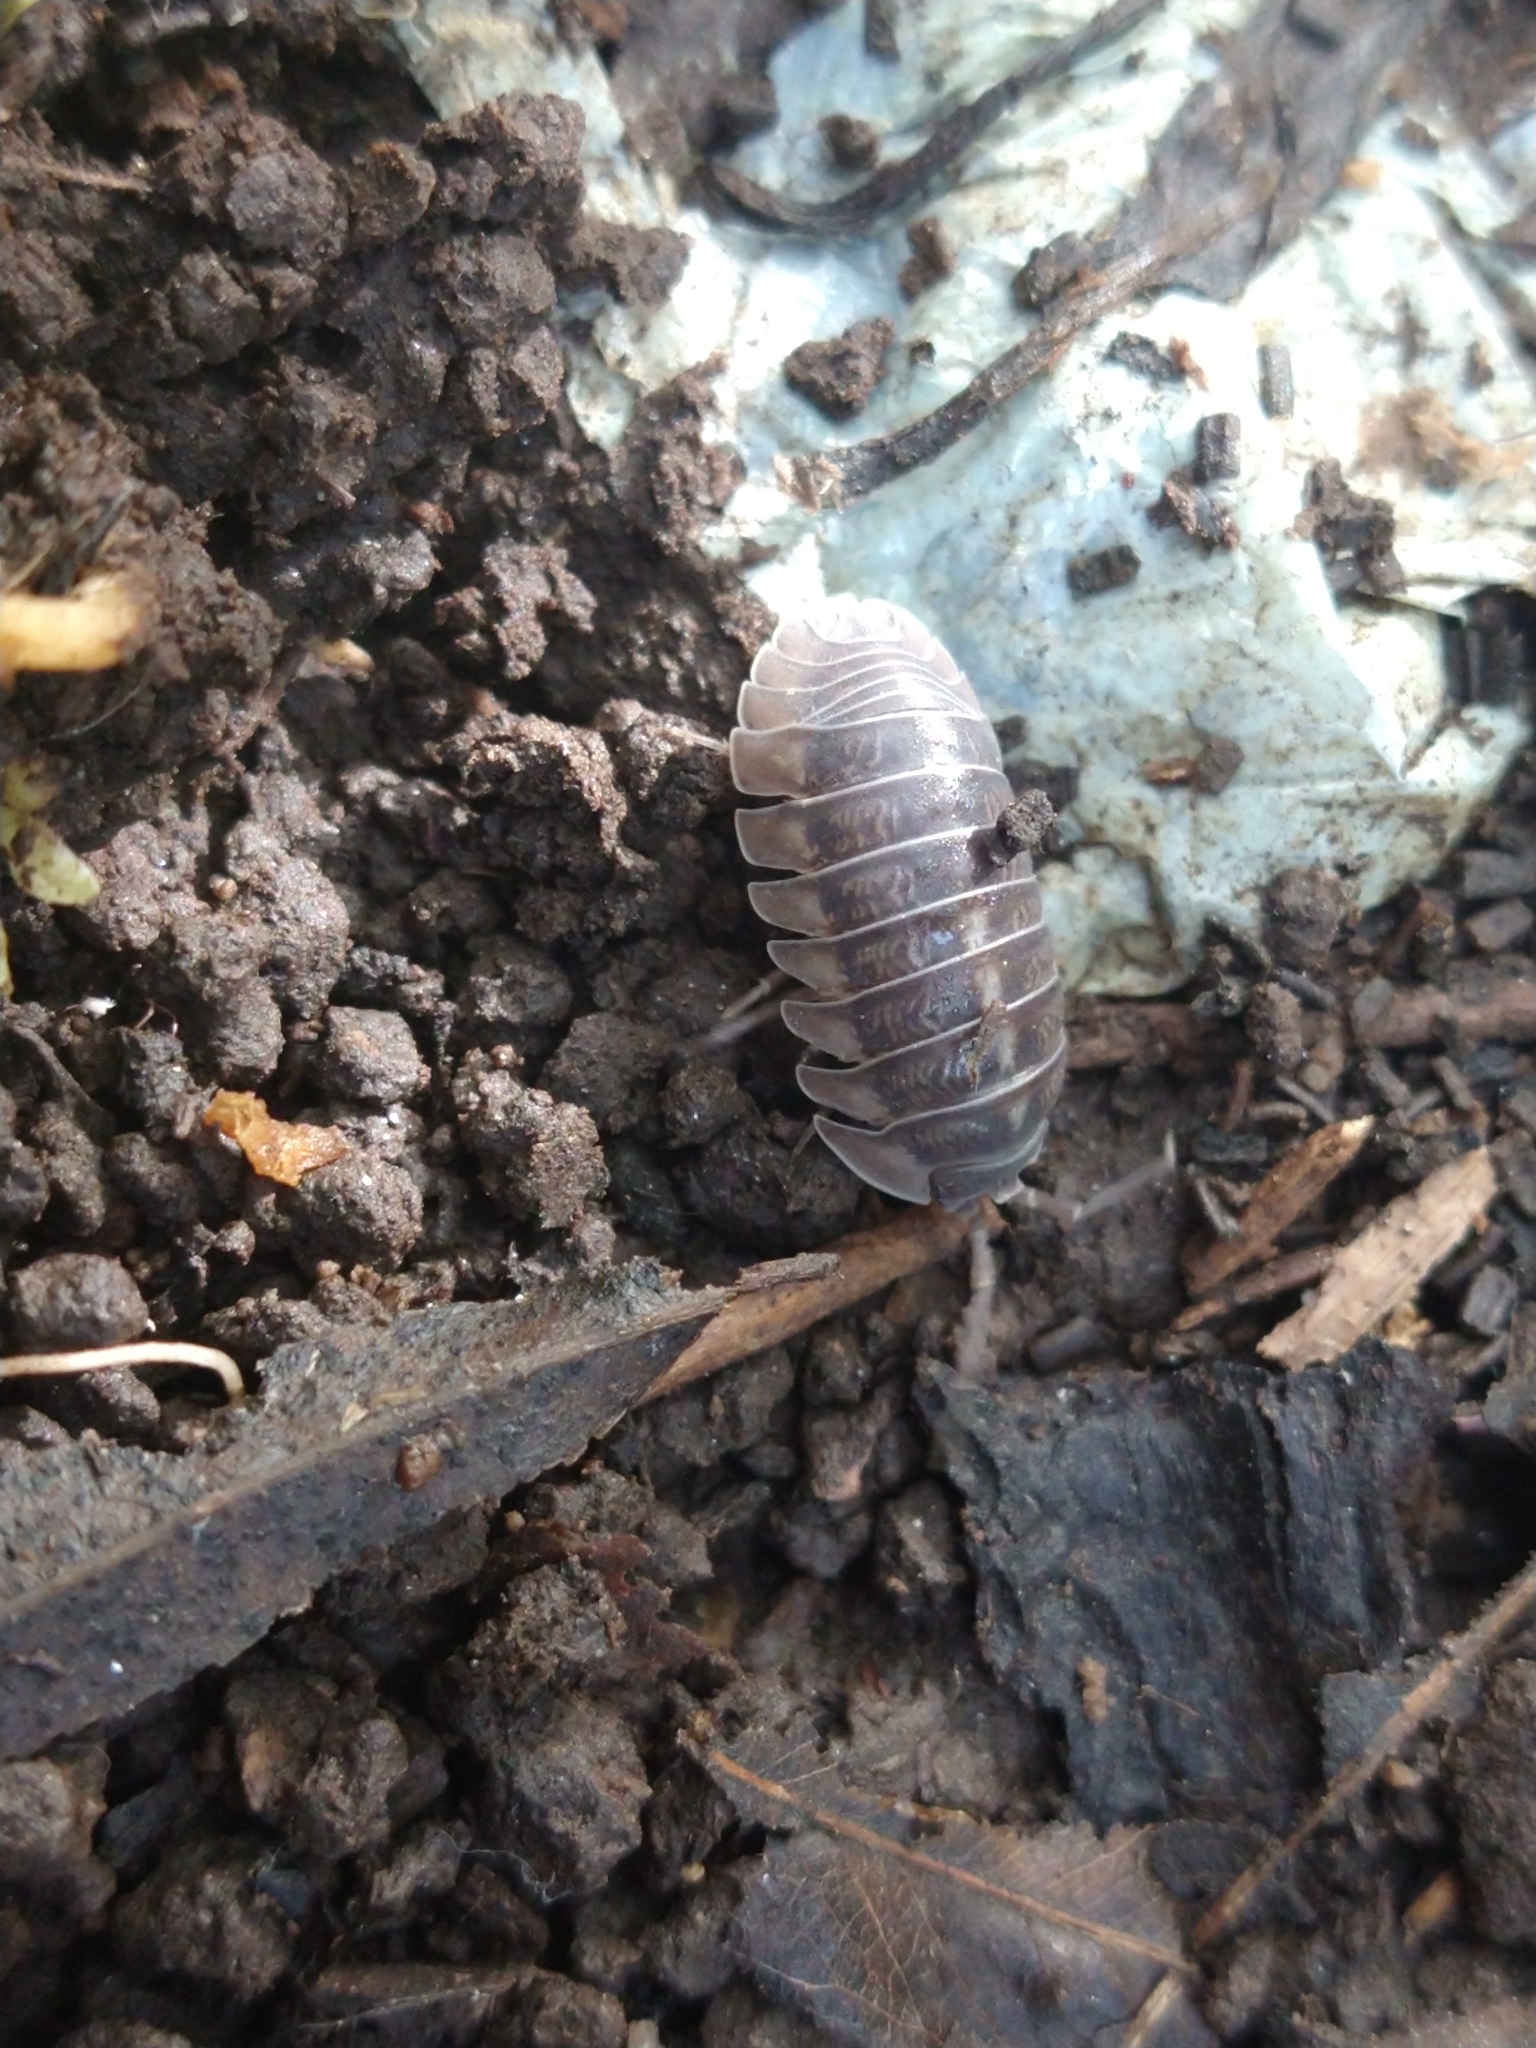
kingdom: Animalia
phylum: Arthropoda
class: Malacostraca
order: Isopoda
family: Armadillidiidae
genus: Armadillidium
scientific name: Armadillidium nasatum
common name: Isopod
